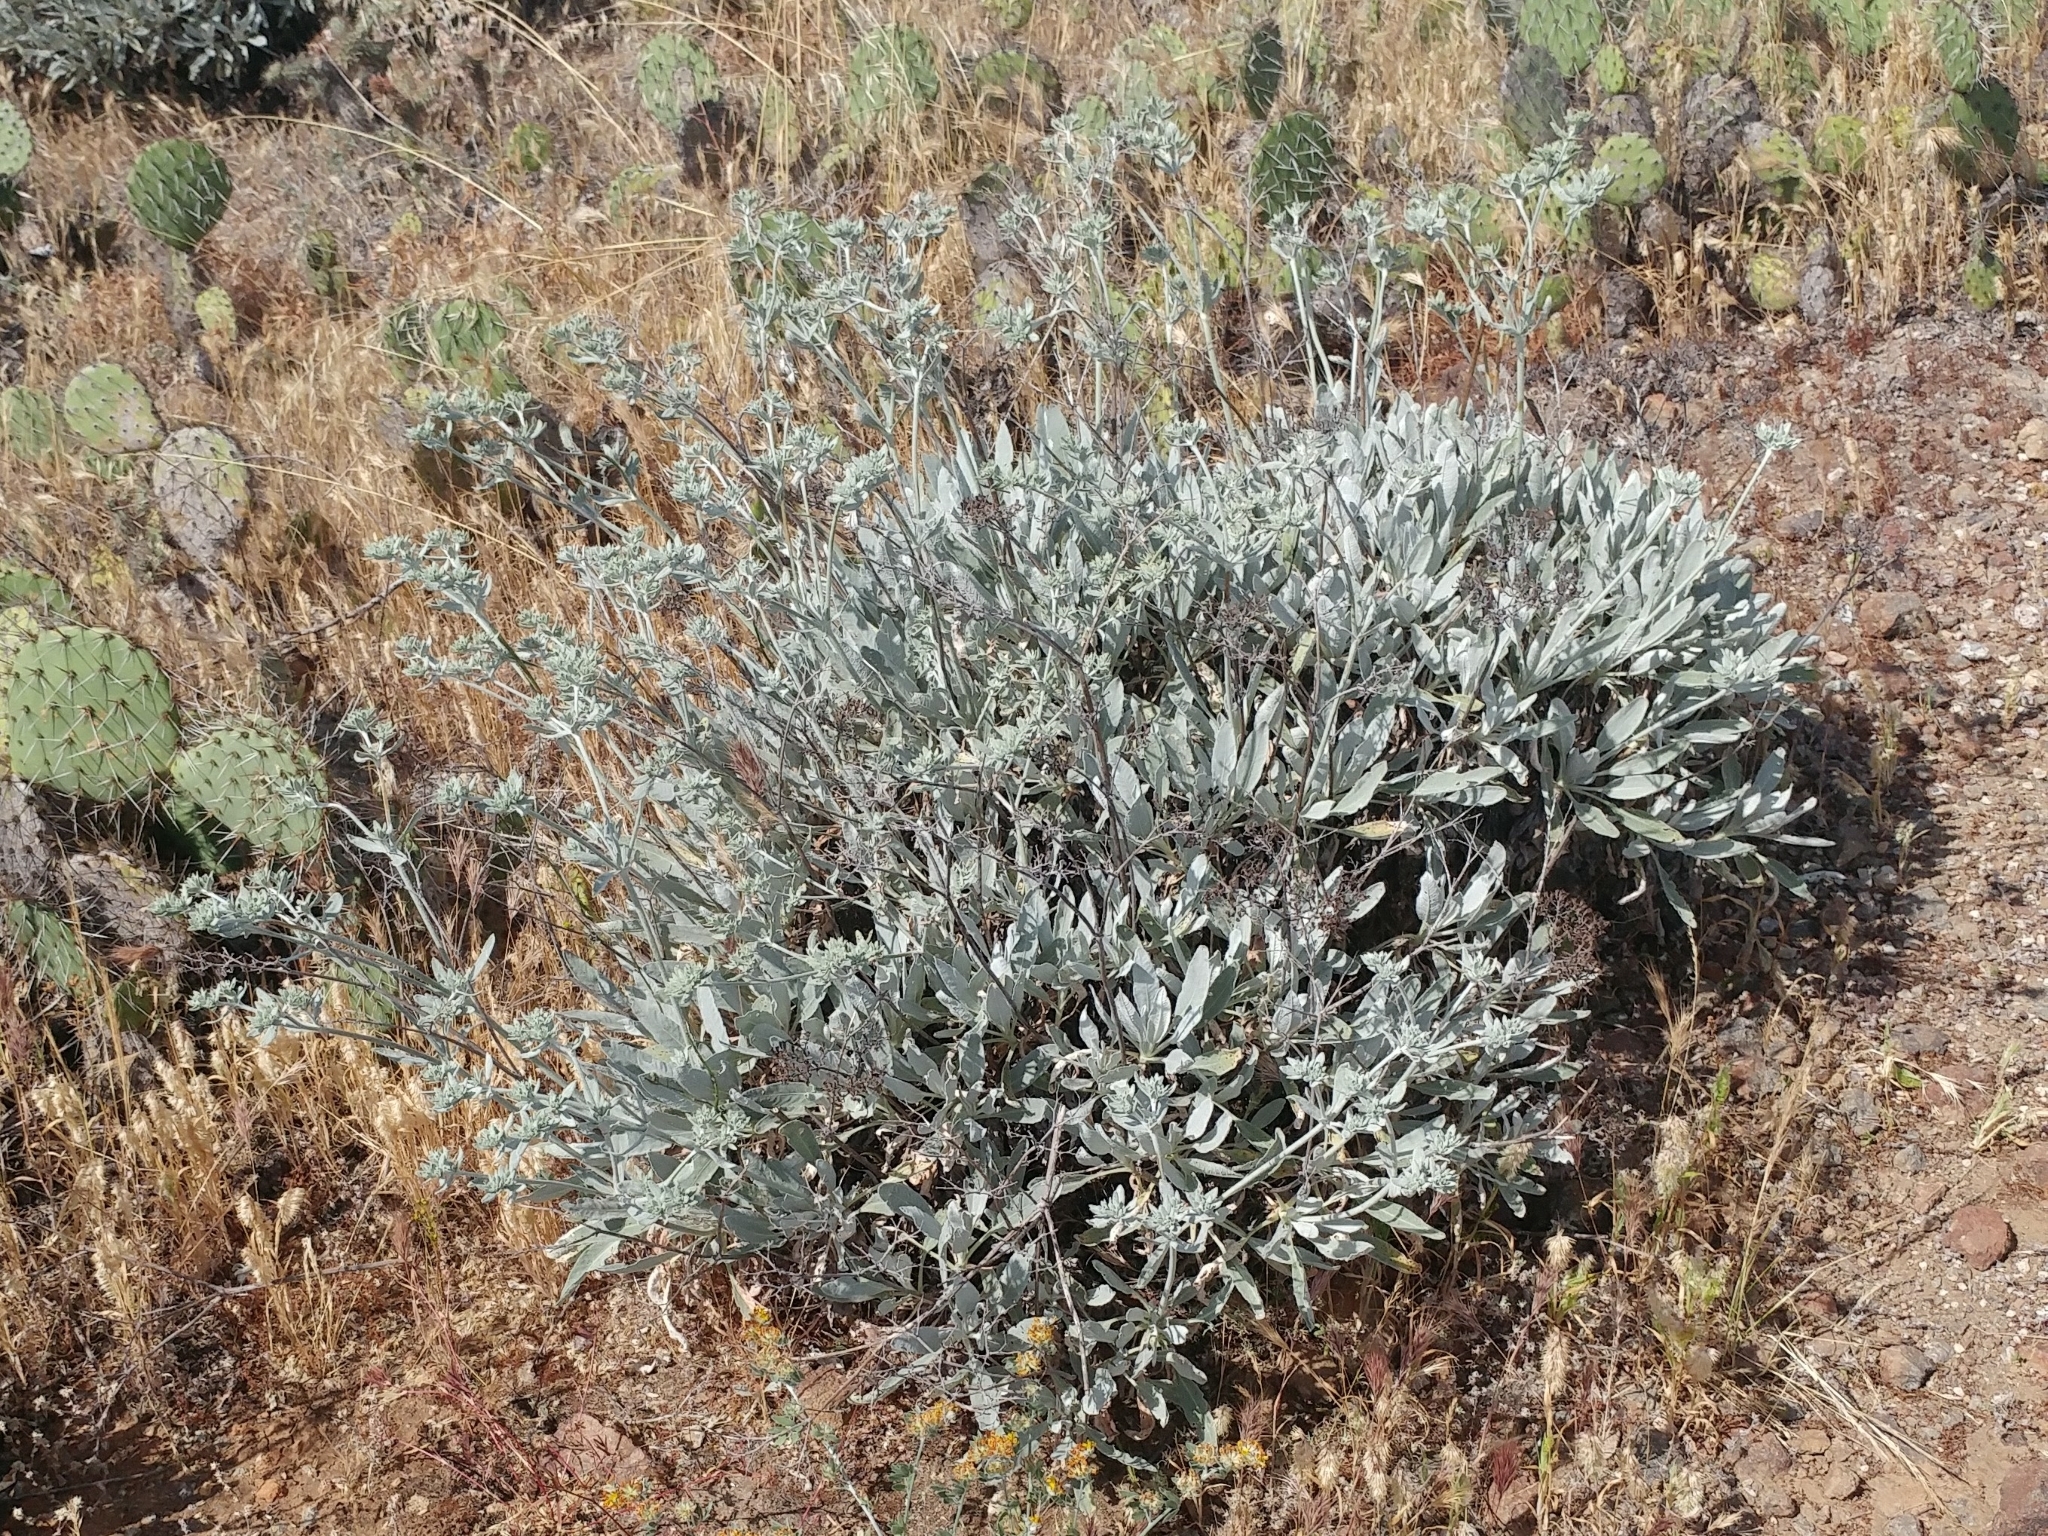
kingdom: Plantae
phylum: Tracheophyta
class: Magnoliopsida
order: Caryophyllales
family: Polygonaceae
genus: Eriogonum
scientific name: Eriogonum giganteum
